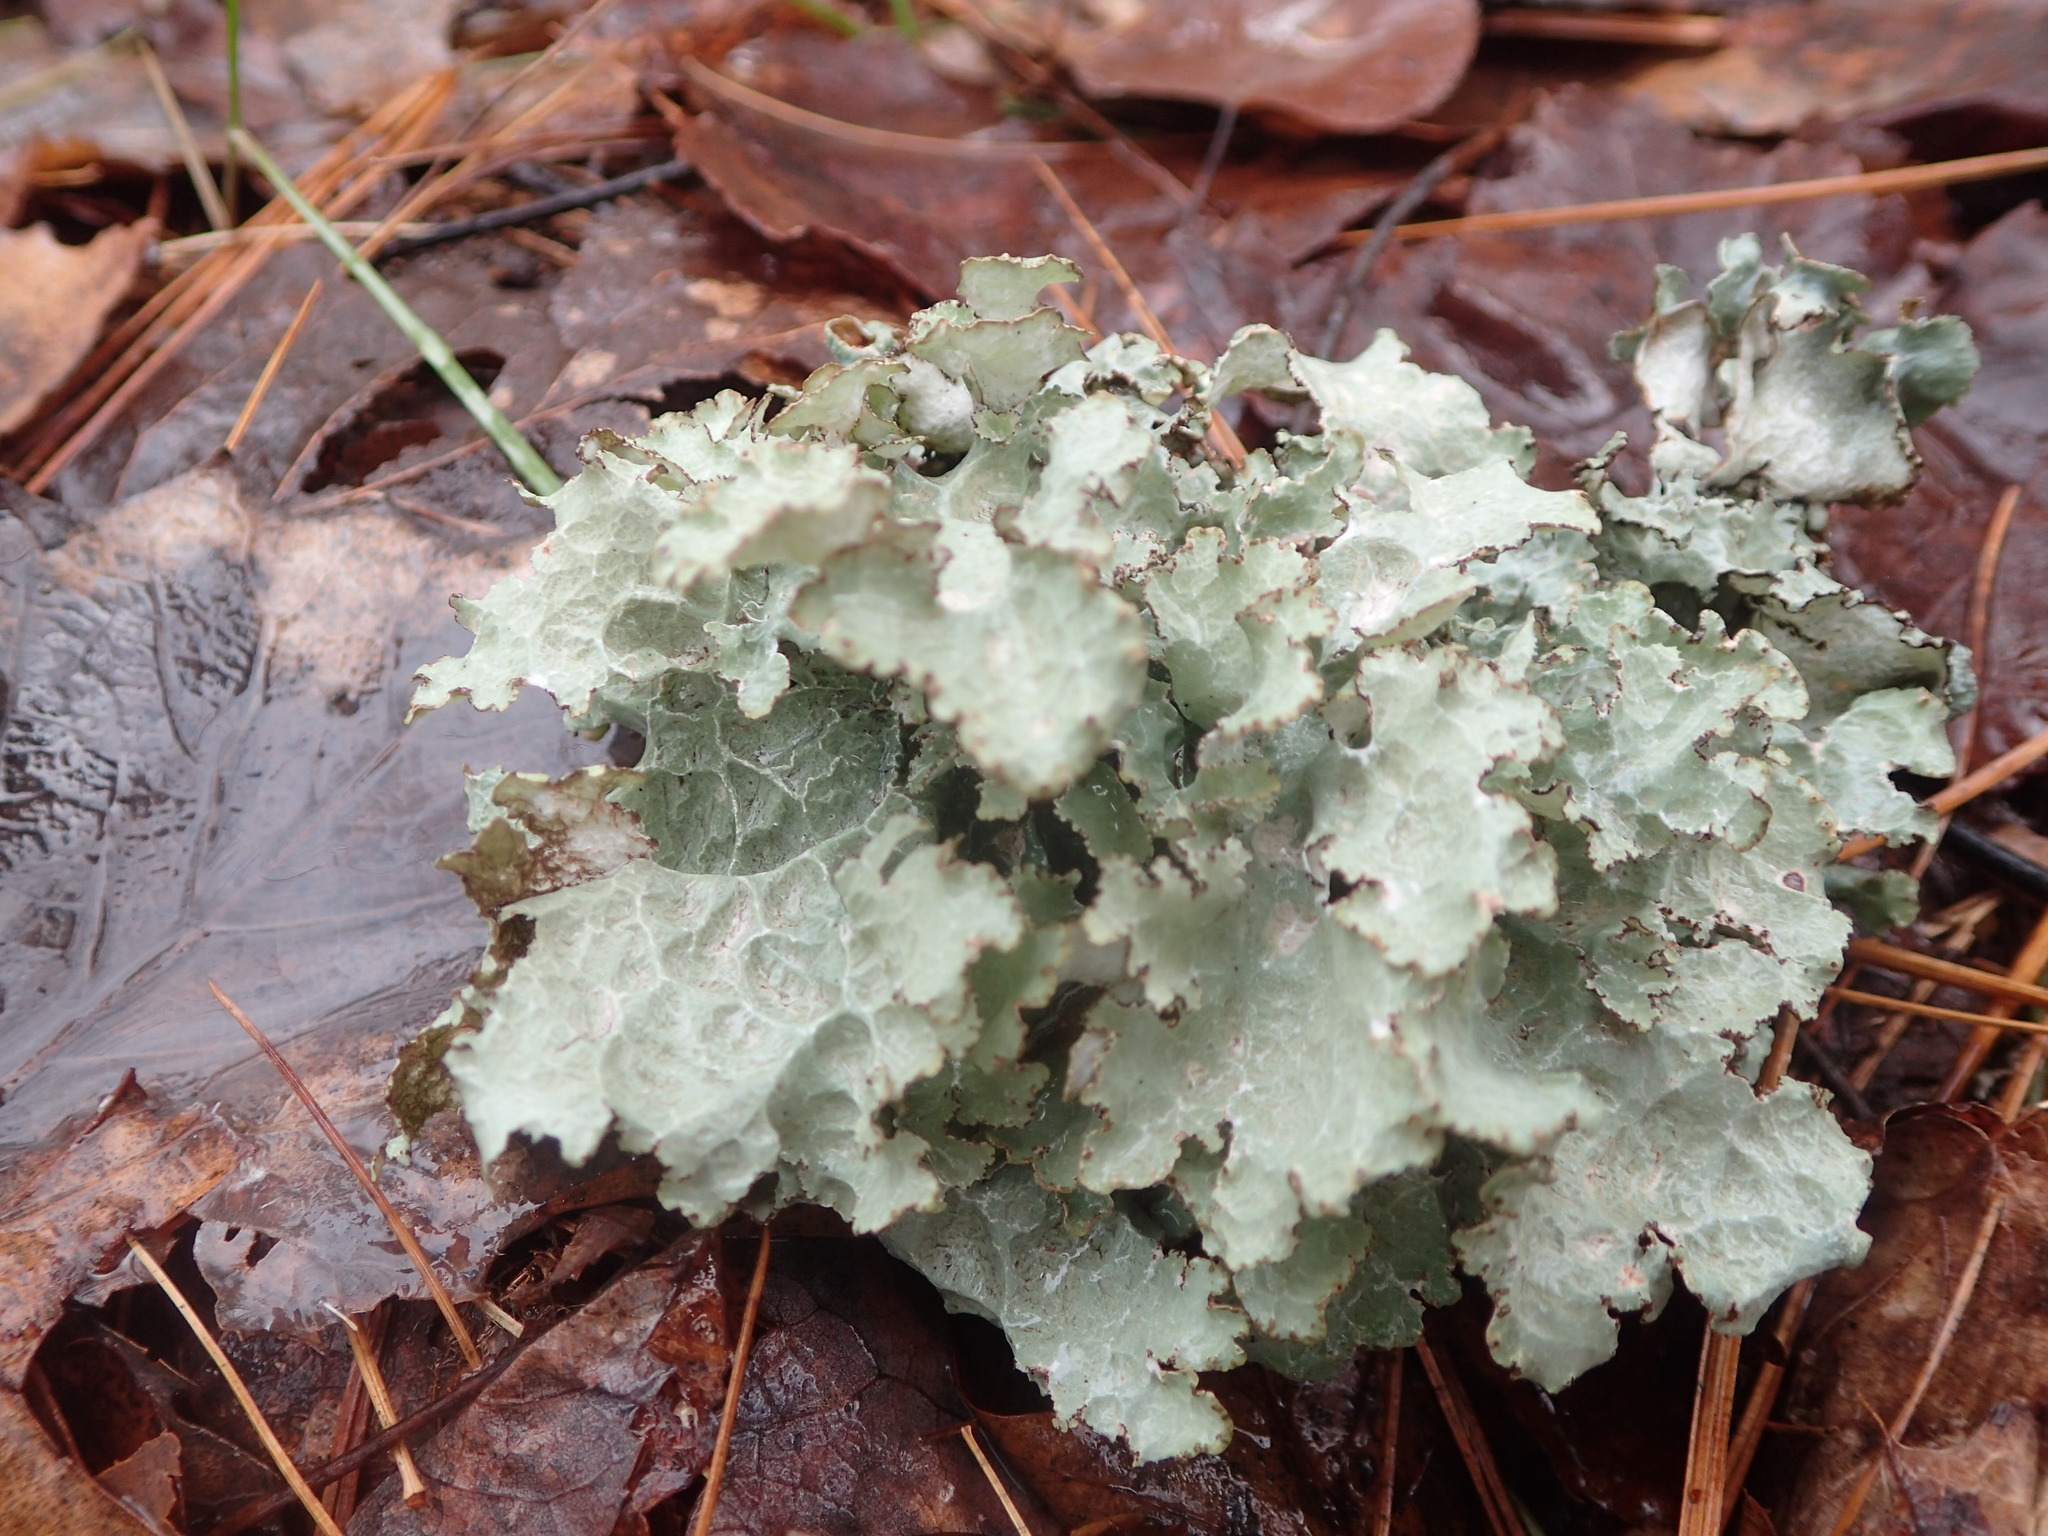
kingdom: Fungi
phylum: Ascomycota
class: Lecanoromycetes
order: Lecanorales
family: Parmeliaceae
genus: Platismatia
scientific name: Platismatia glauca
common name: Varied rag lichen
